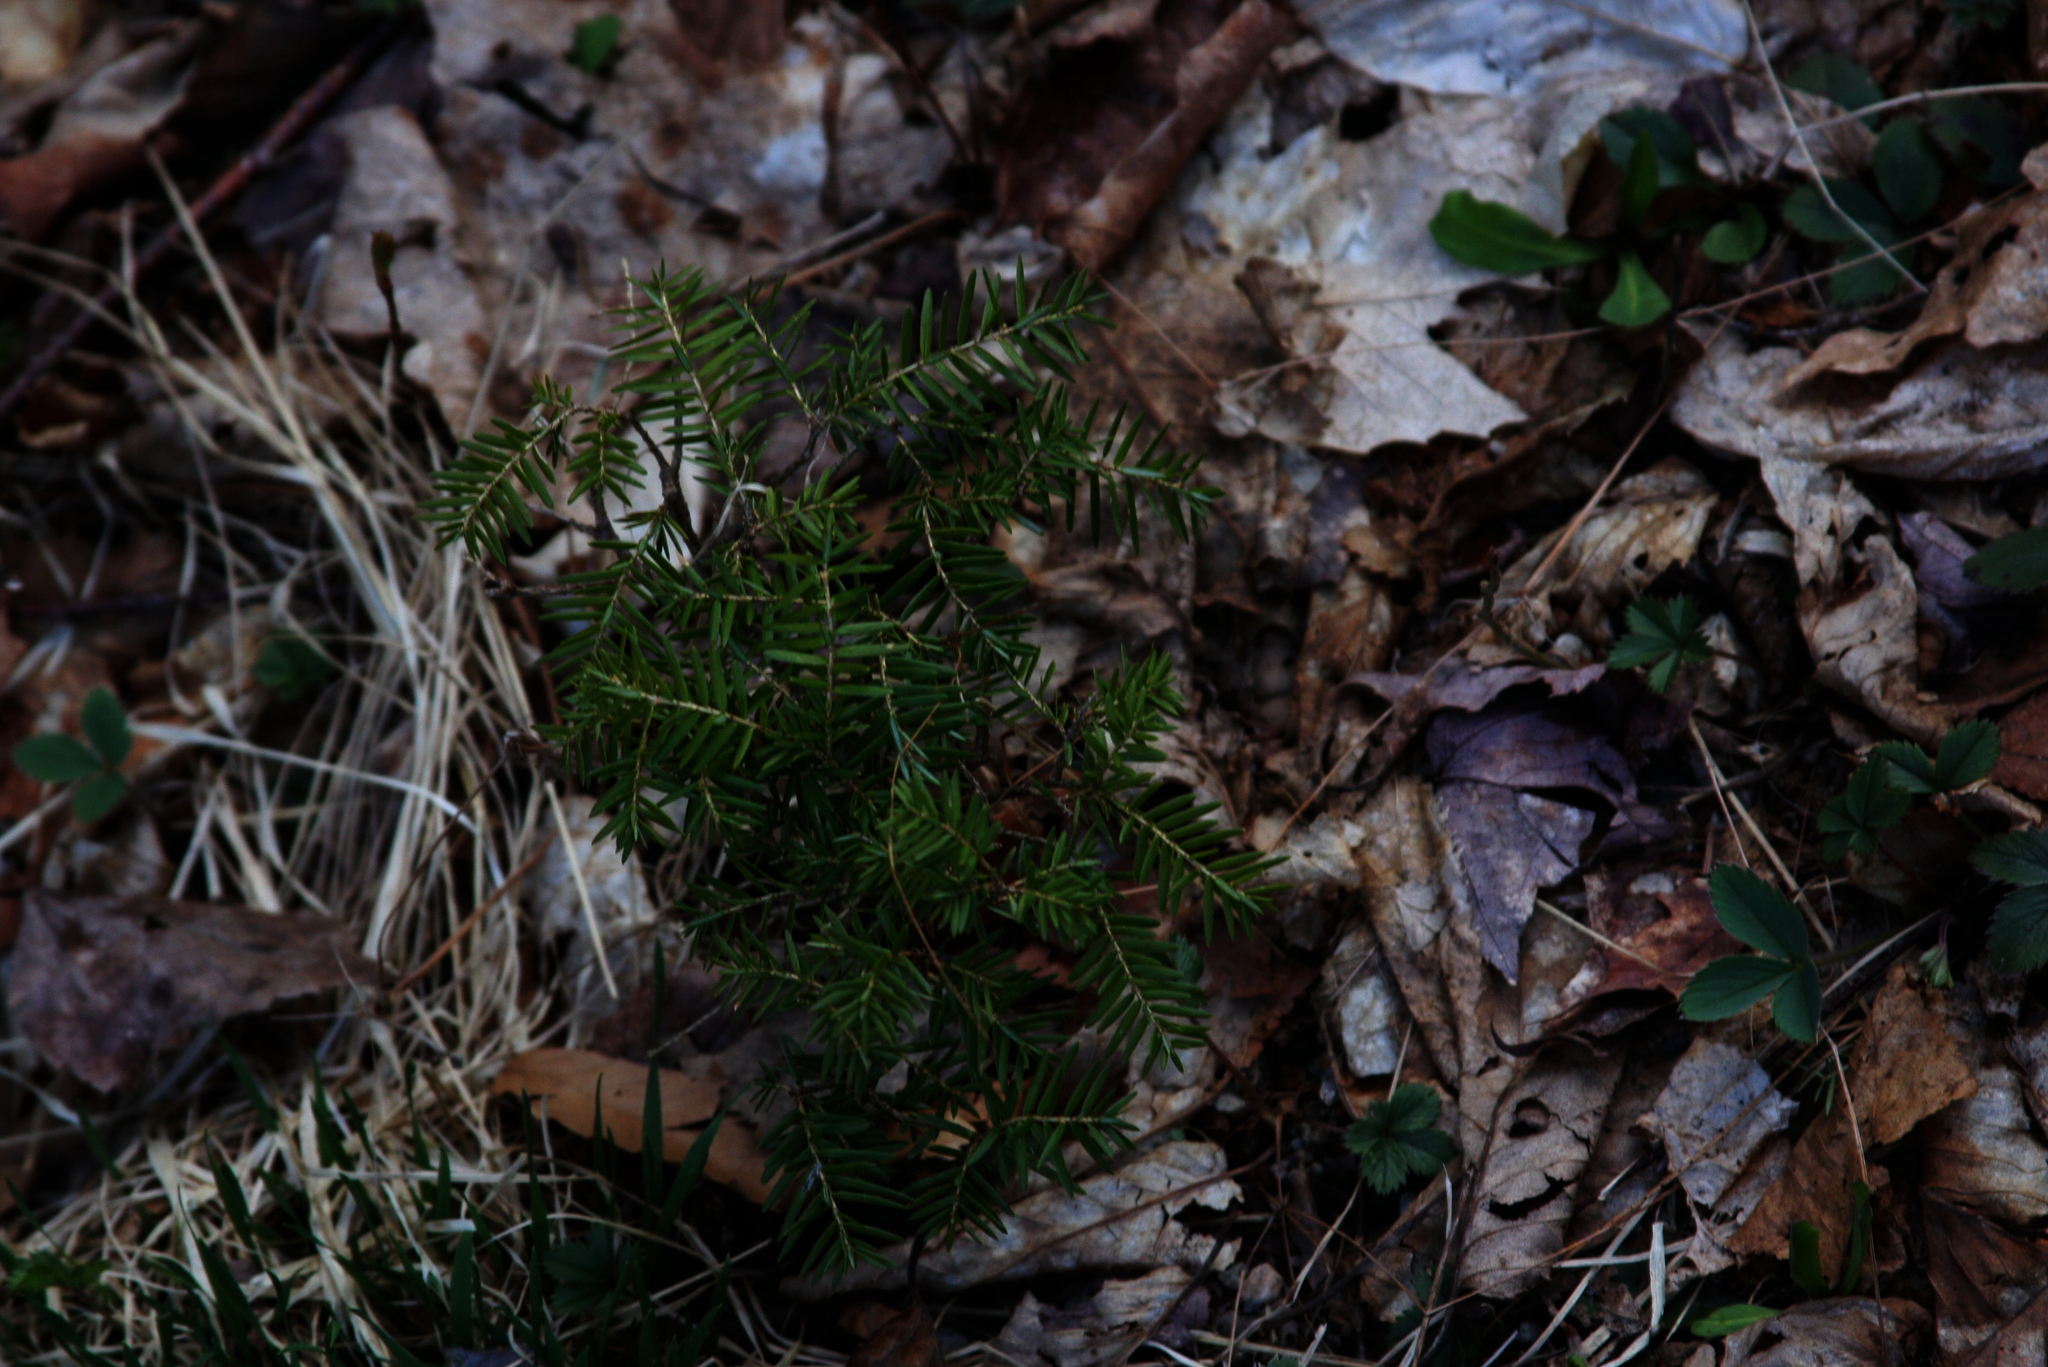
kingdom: Plantae
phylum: Tracheophyta
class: Pinopsida
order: Pinales
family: Pinaceae
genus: Tsuga
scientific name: Tsuga canadensis
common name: Eastern hemlock
